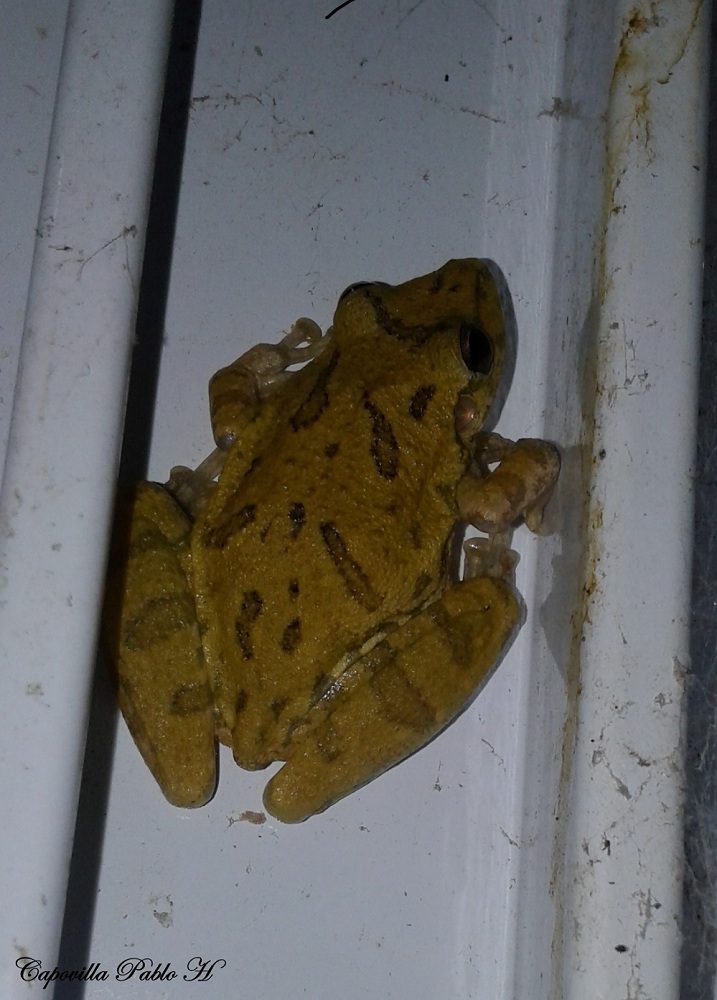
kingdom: Animalia
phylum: Chordata
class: Amphibia
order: Anura
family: Hylidae
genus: Scinax
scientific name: Scinax fuscovarius
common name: Fuscous-blotched treefrog
